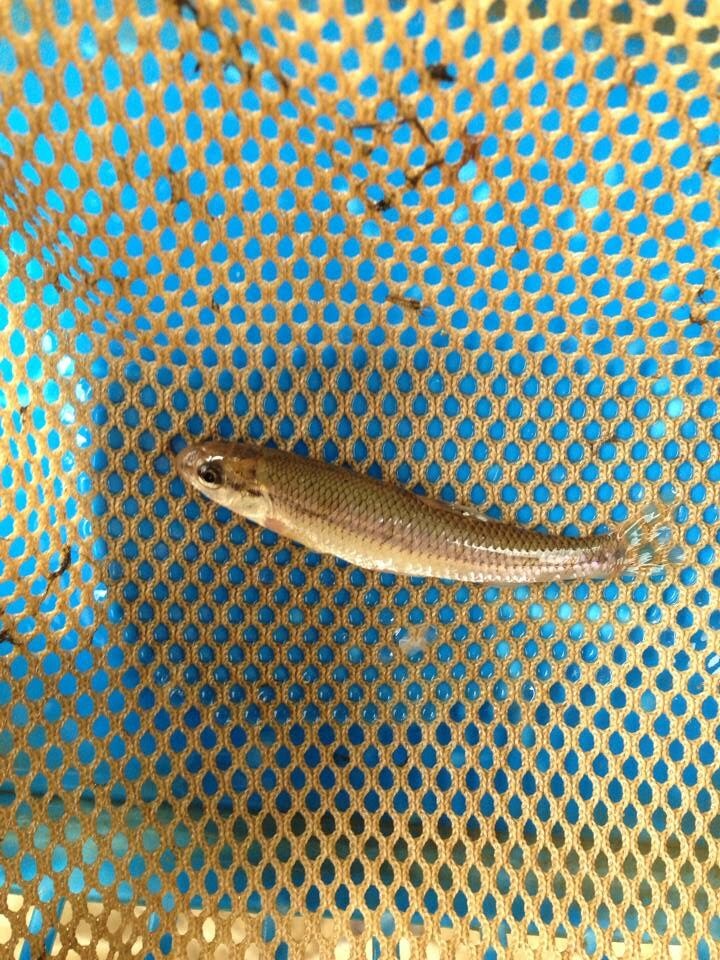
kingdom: Animalia
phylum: Chordata
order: Cypriniformes
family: Cyprinidae
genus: Pimephales
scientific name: Pimephales notatus
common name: Bluntnose minnow
